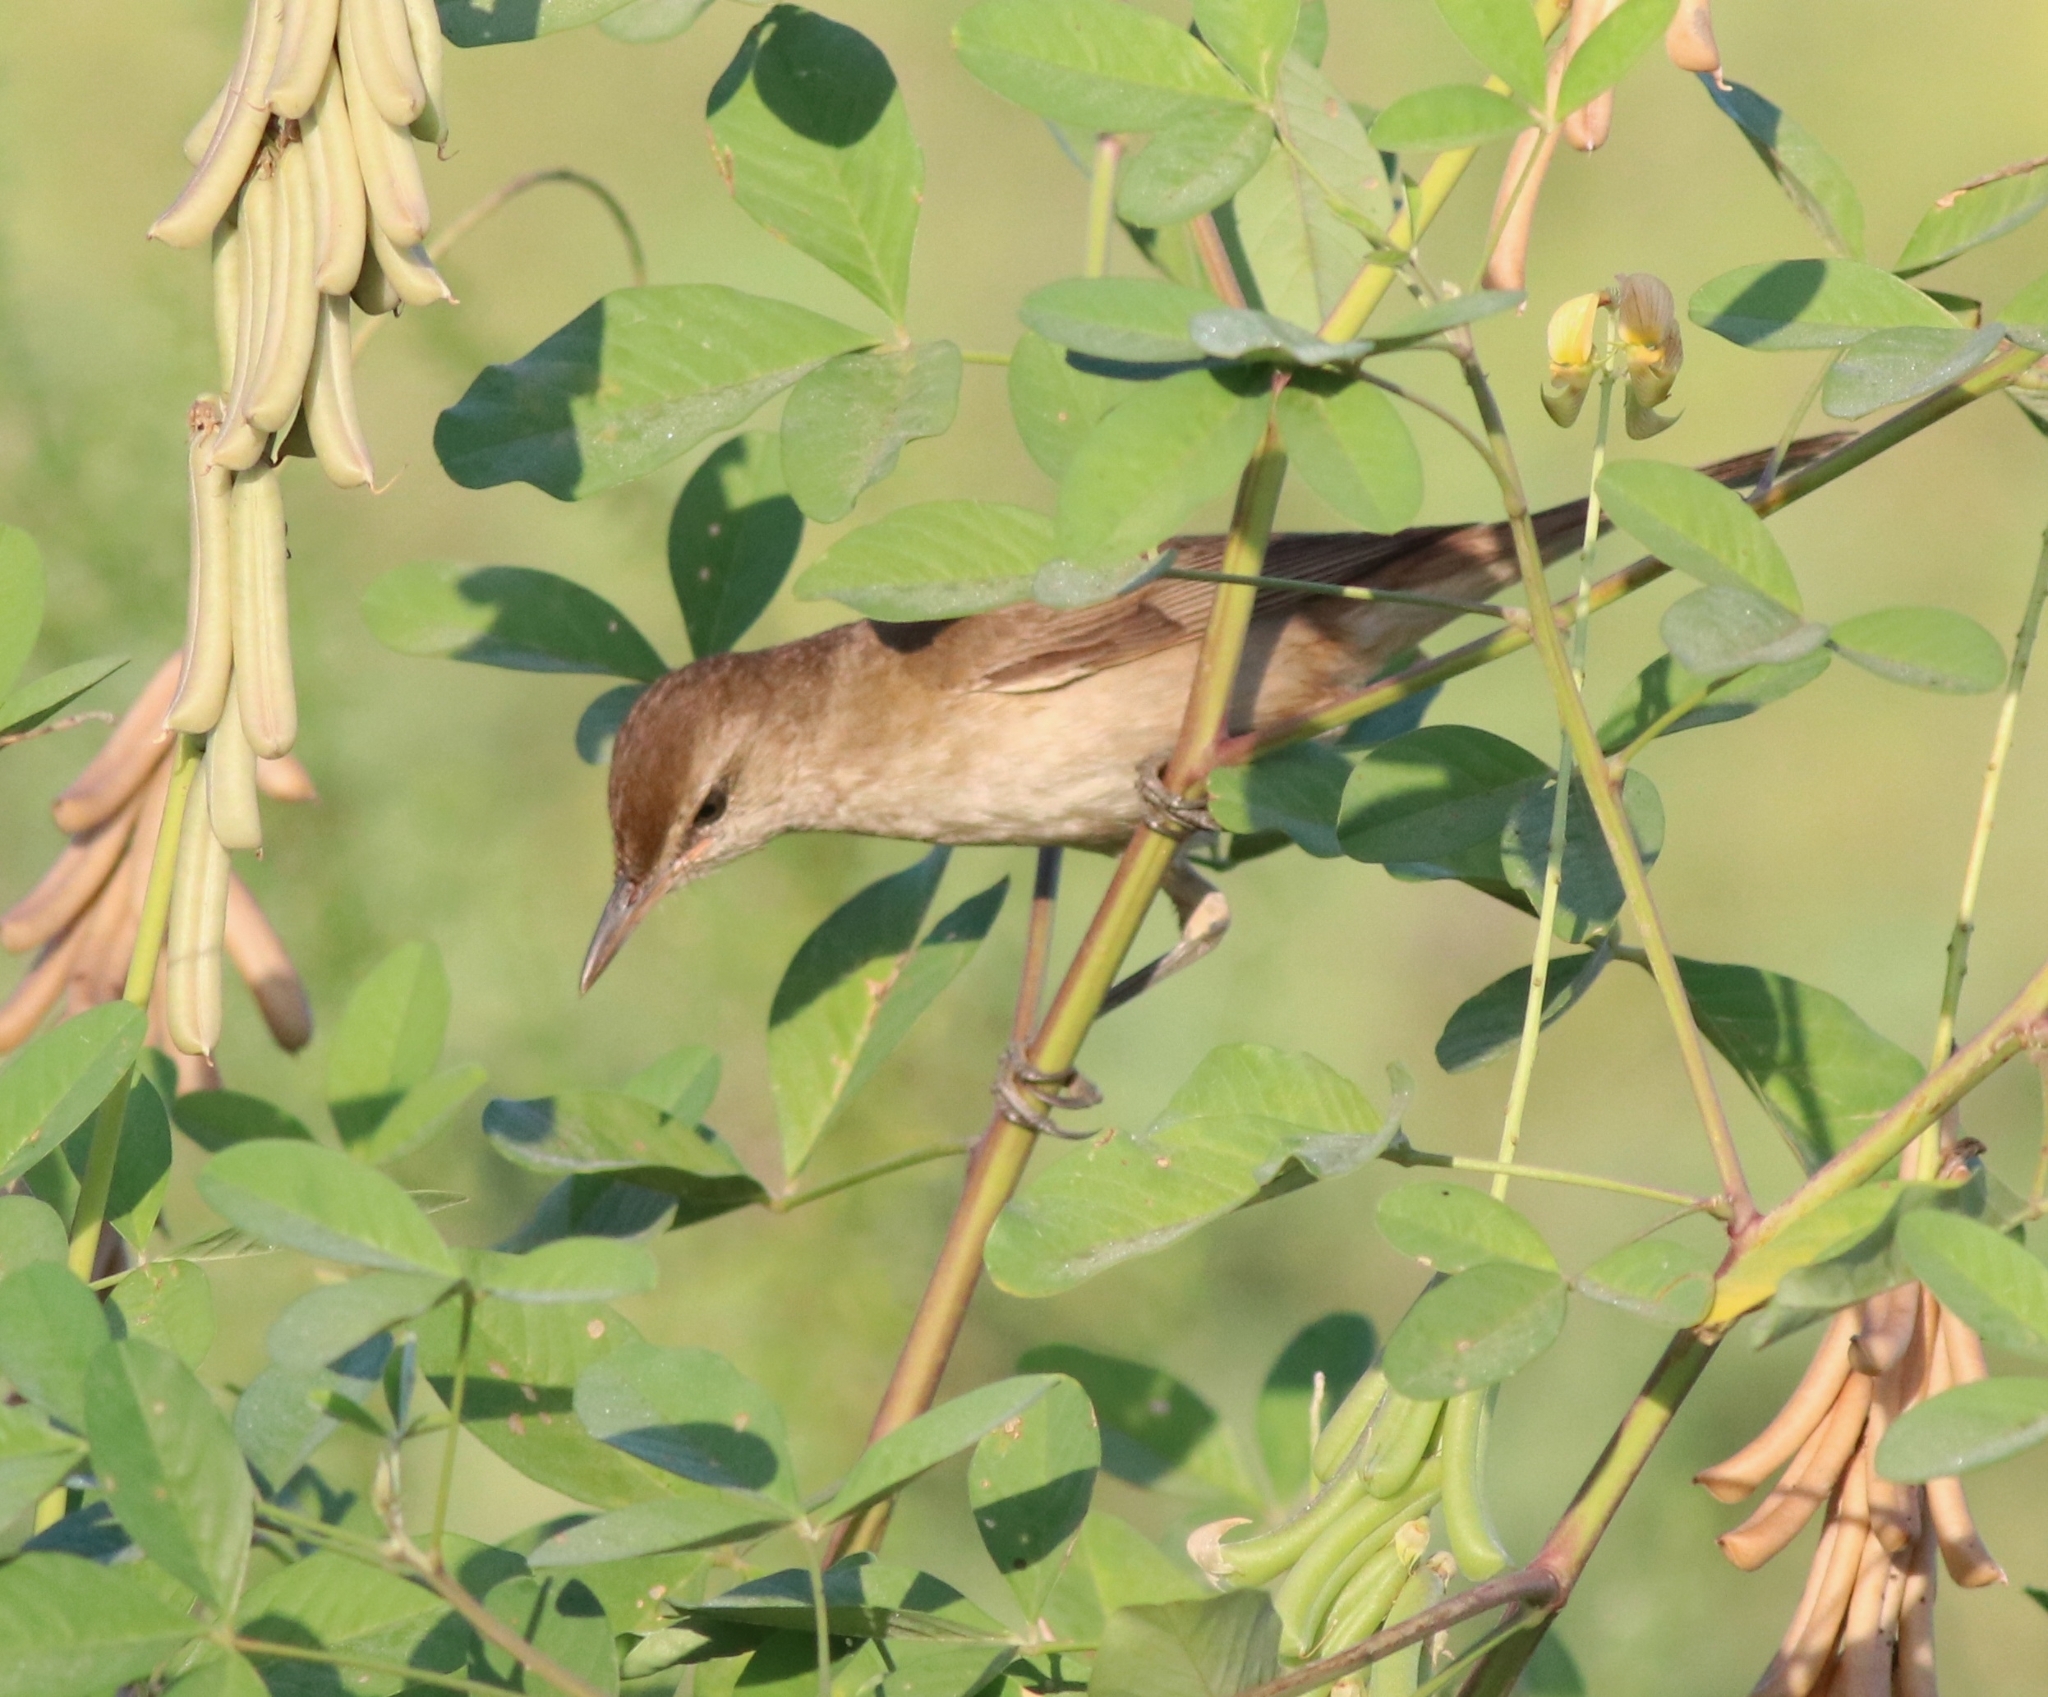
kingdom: Animalia
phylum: Chordata
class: Aves
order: Passeriformes
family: Acrocephalidae
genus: Acrocephalus
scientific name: Acrocephalus stentoreus
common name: Clamorous reed warbler
